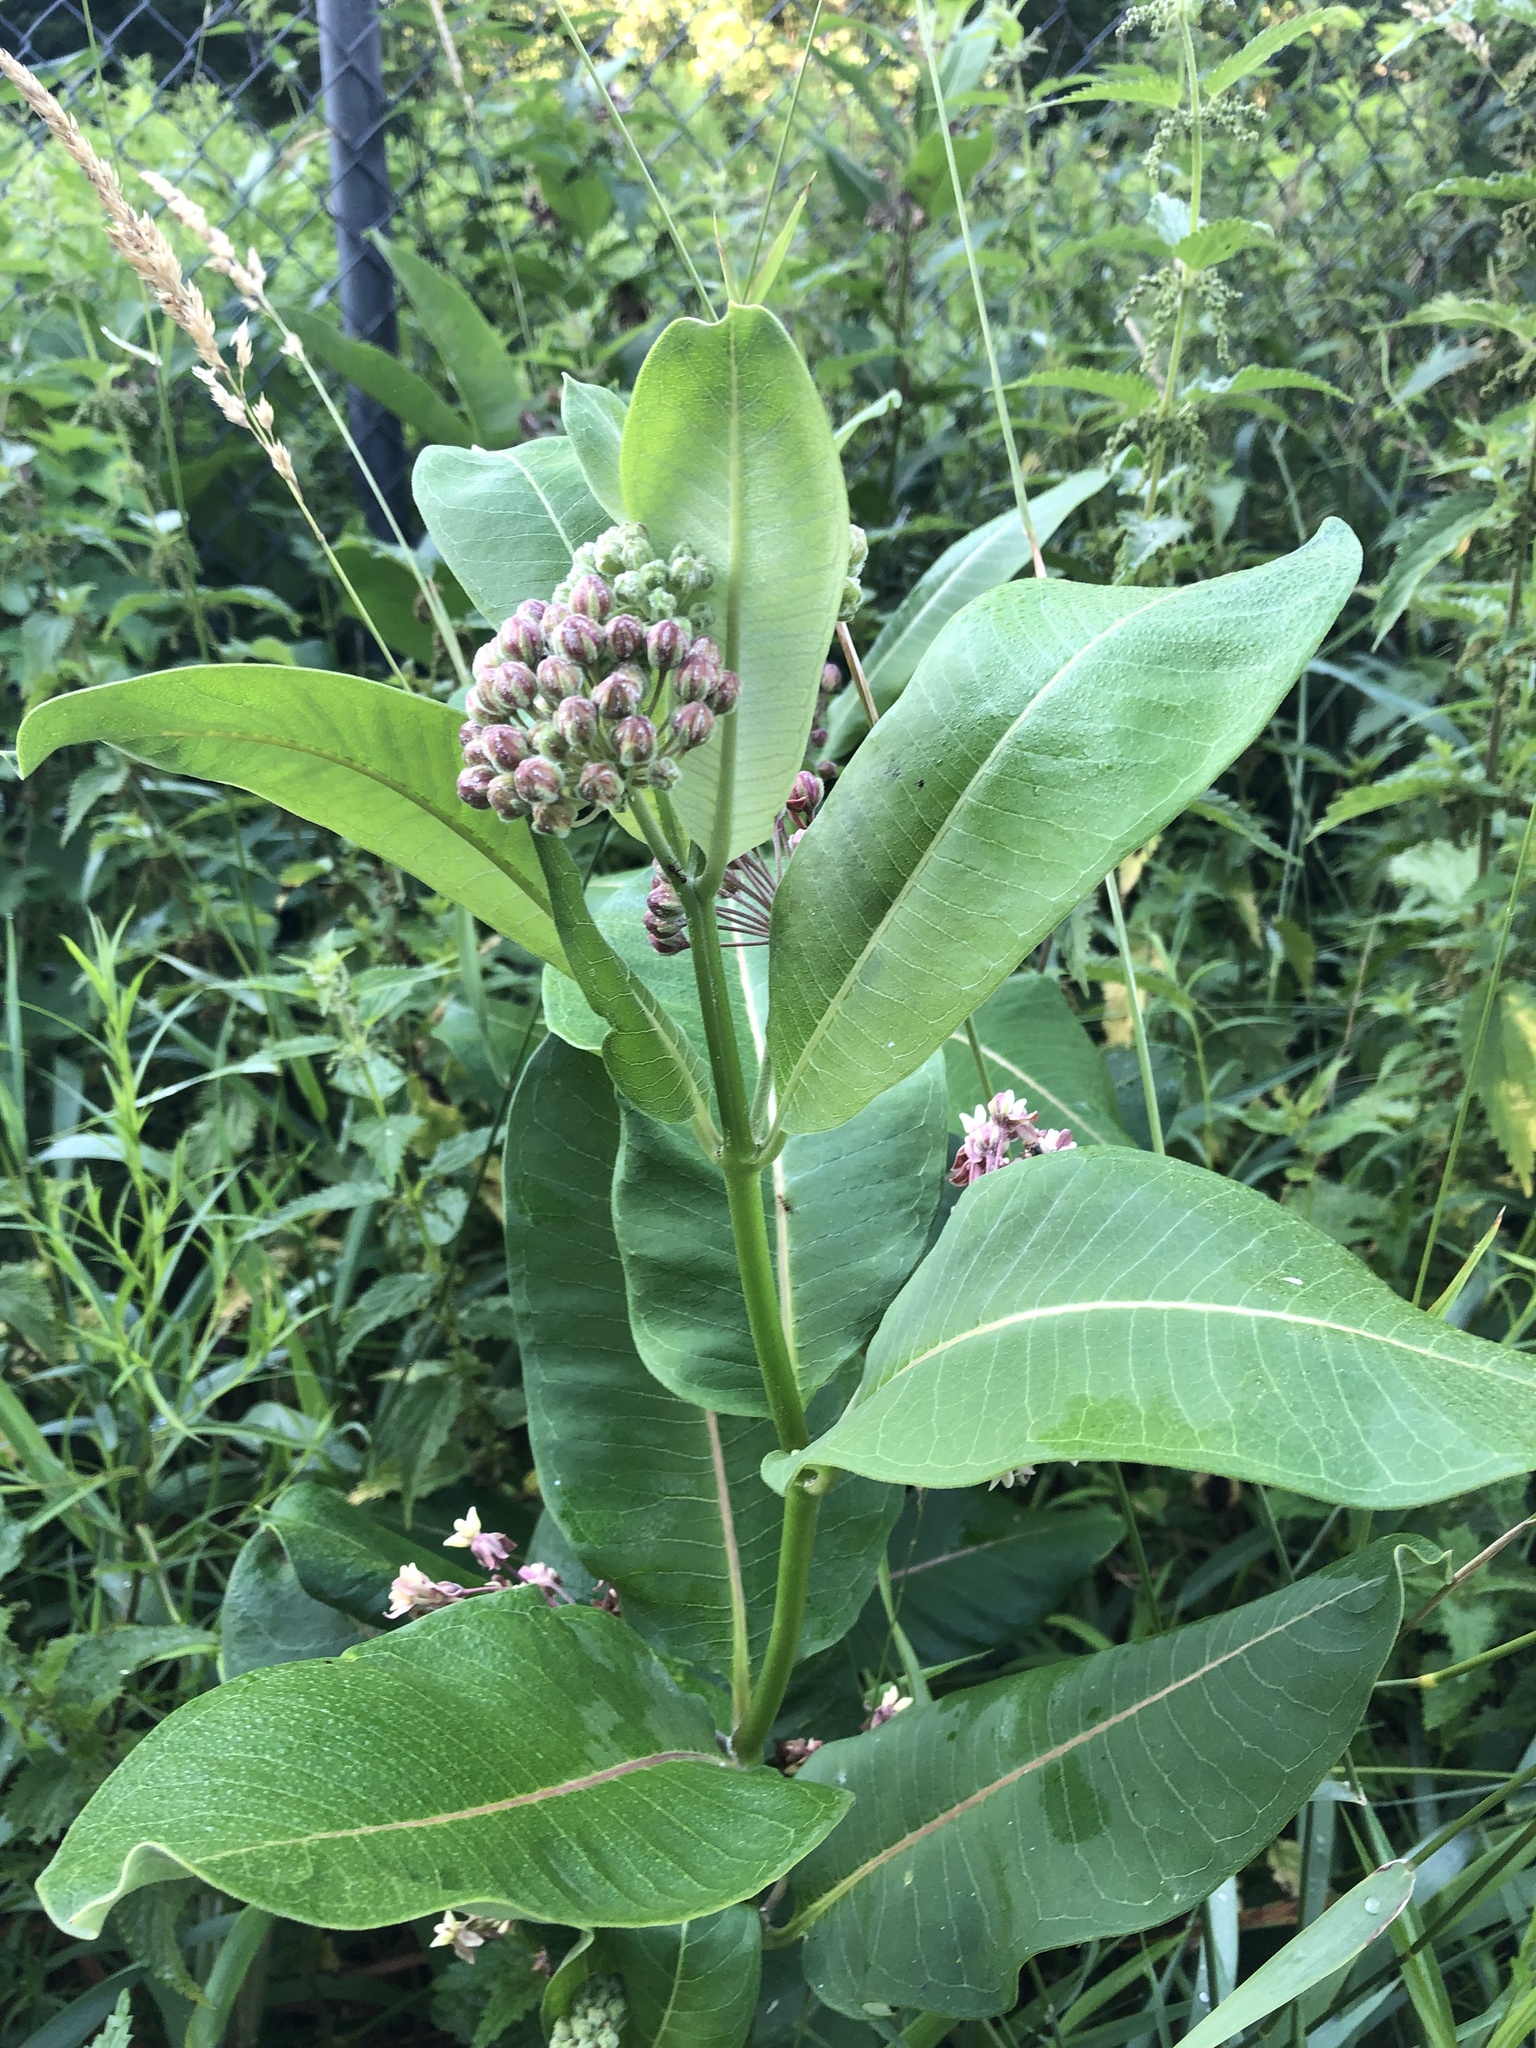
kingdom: Plantae
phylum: Tracheophyta
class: Magnoliopsida
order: Gentianales
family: Apocynaceae
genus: Asclepias
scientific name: Asclepias syriaca
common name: Common milkweed
